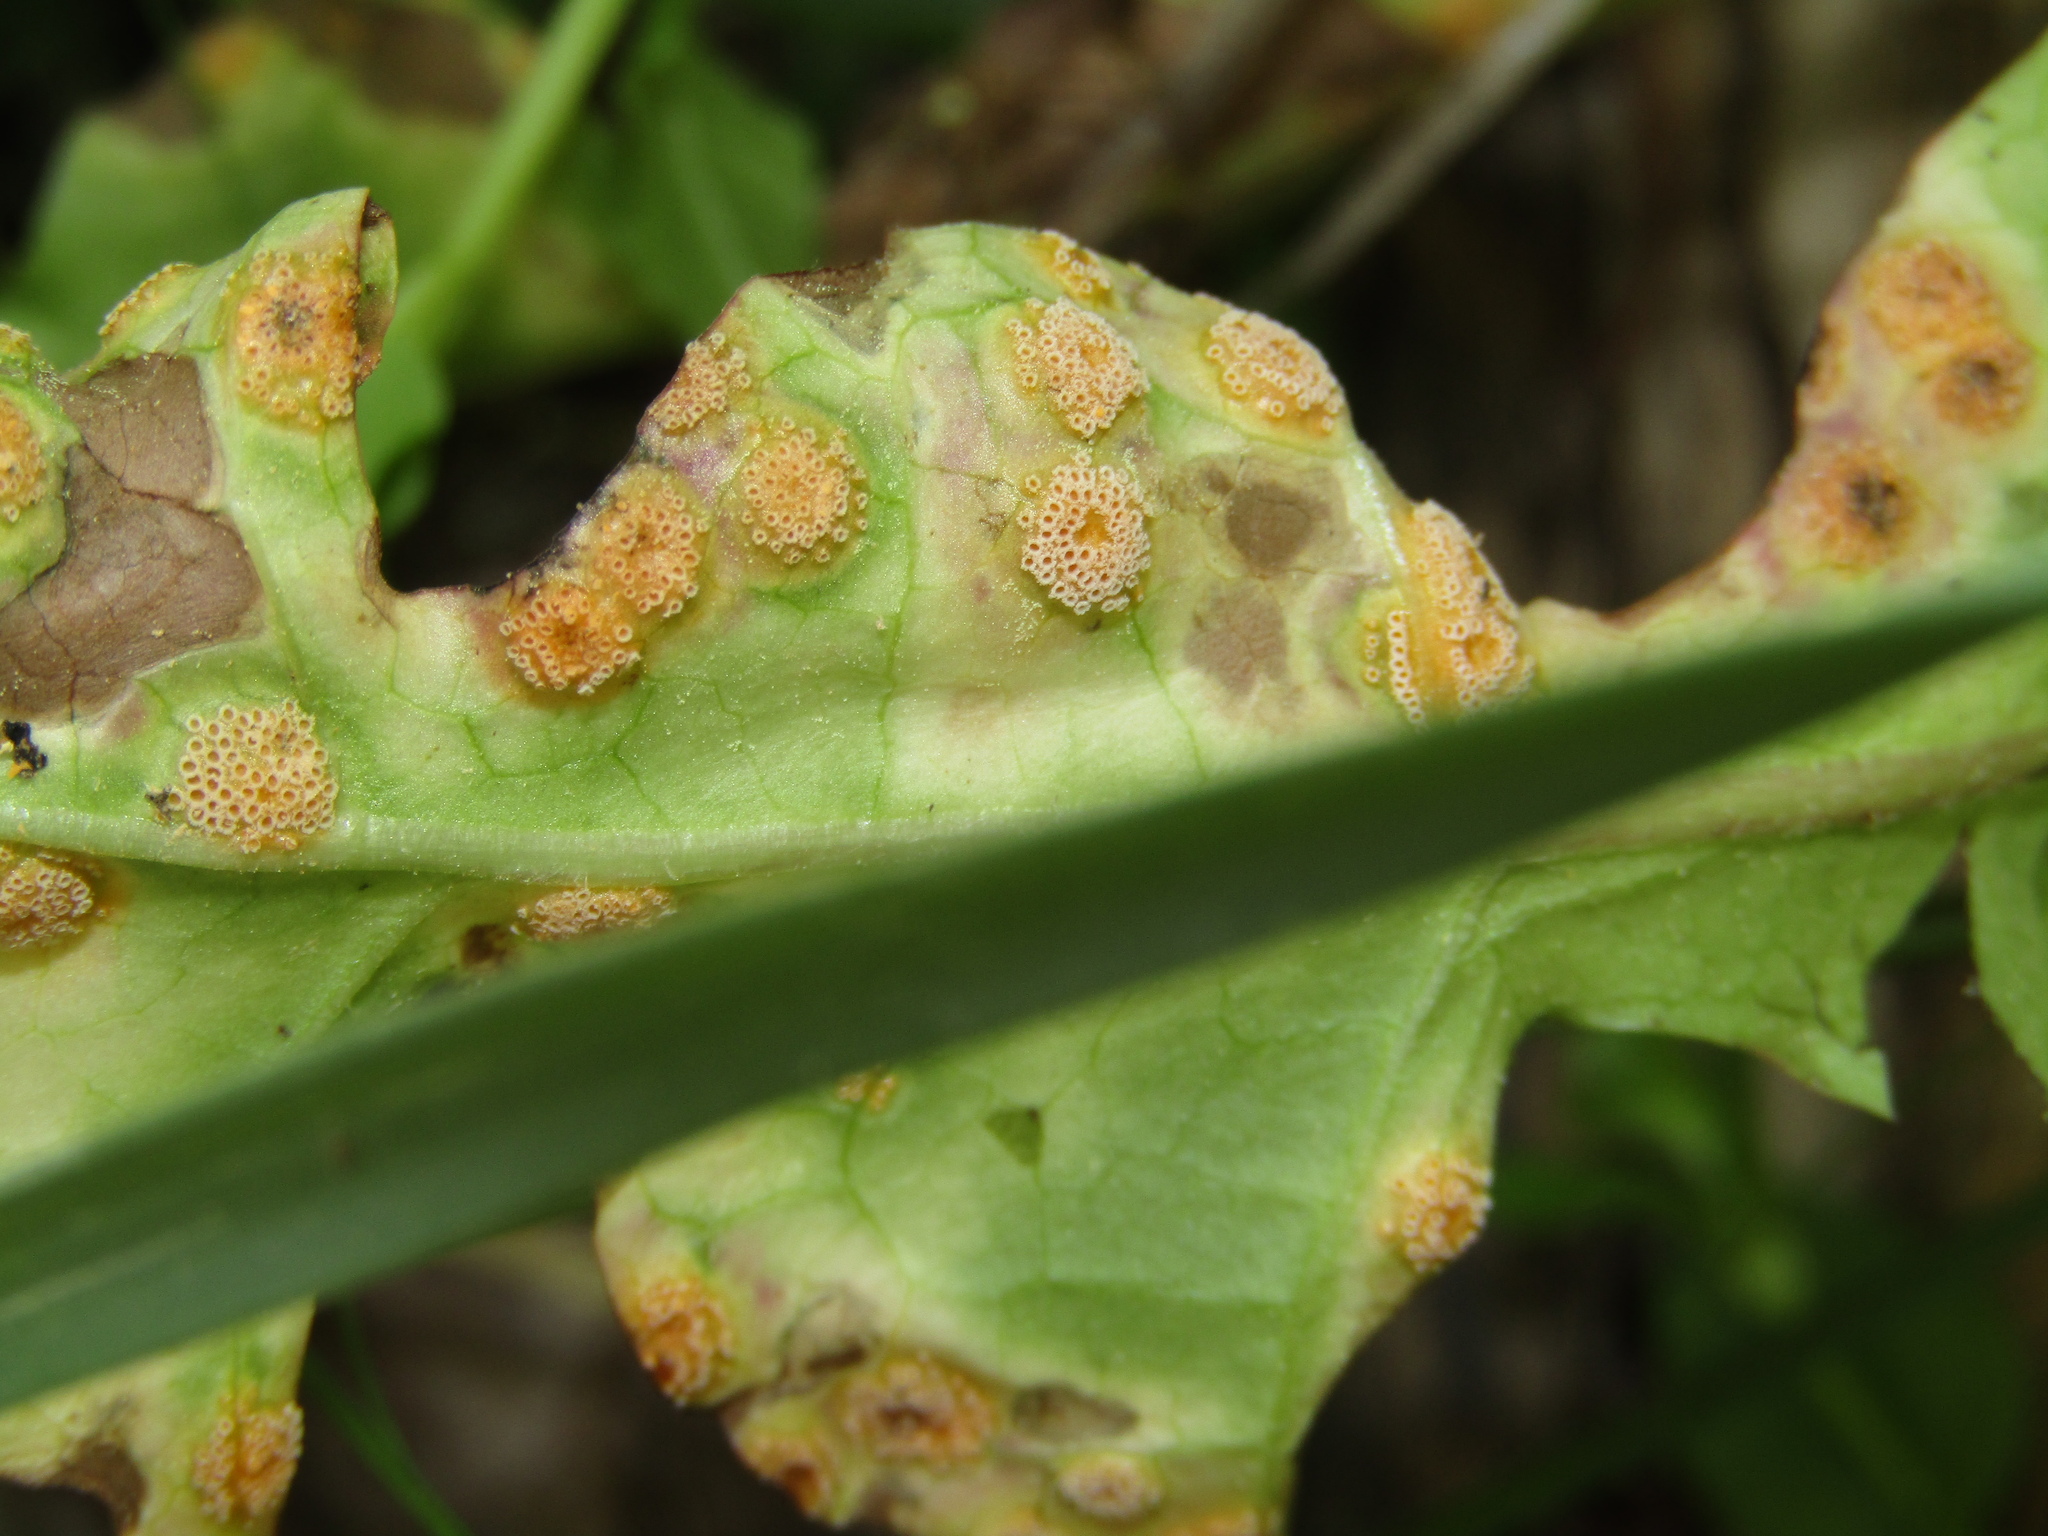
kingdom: Fungi
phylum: Basidiomycota
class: Pucciniomycetes
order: Pucciniales
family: Pucciniaceae
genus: Puccinia
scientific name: Puccinia dioicae
